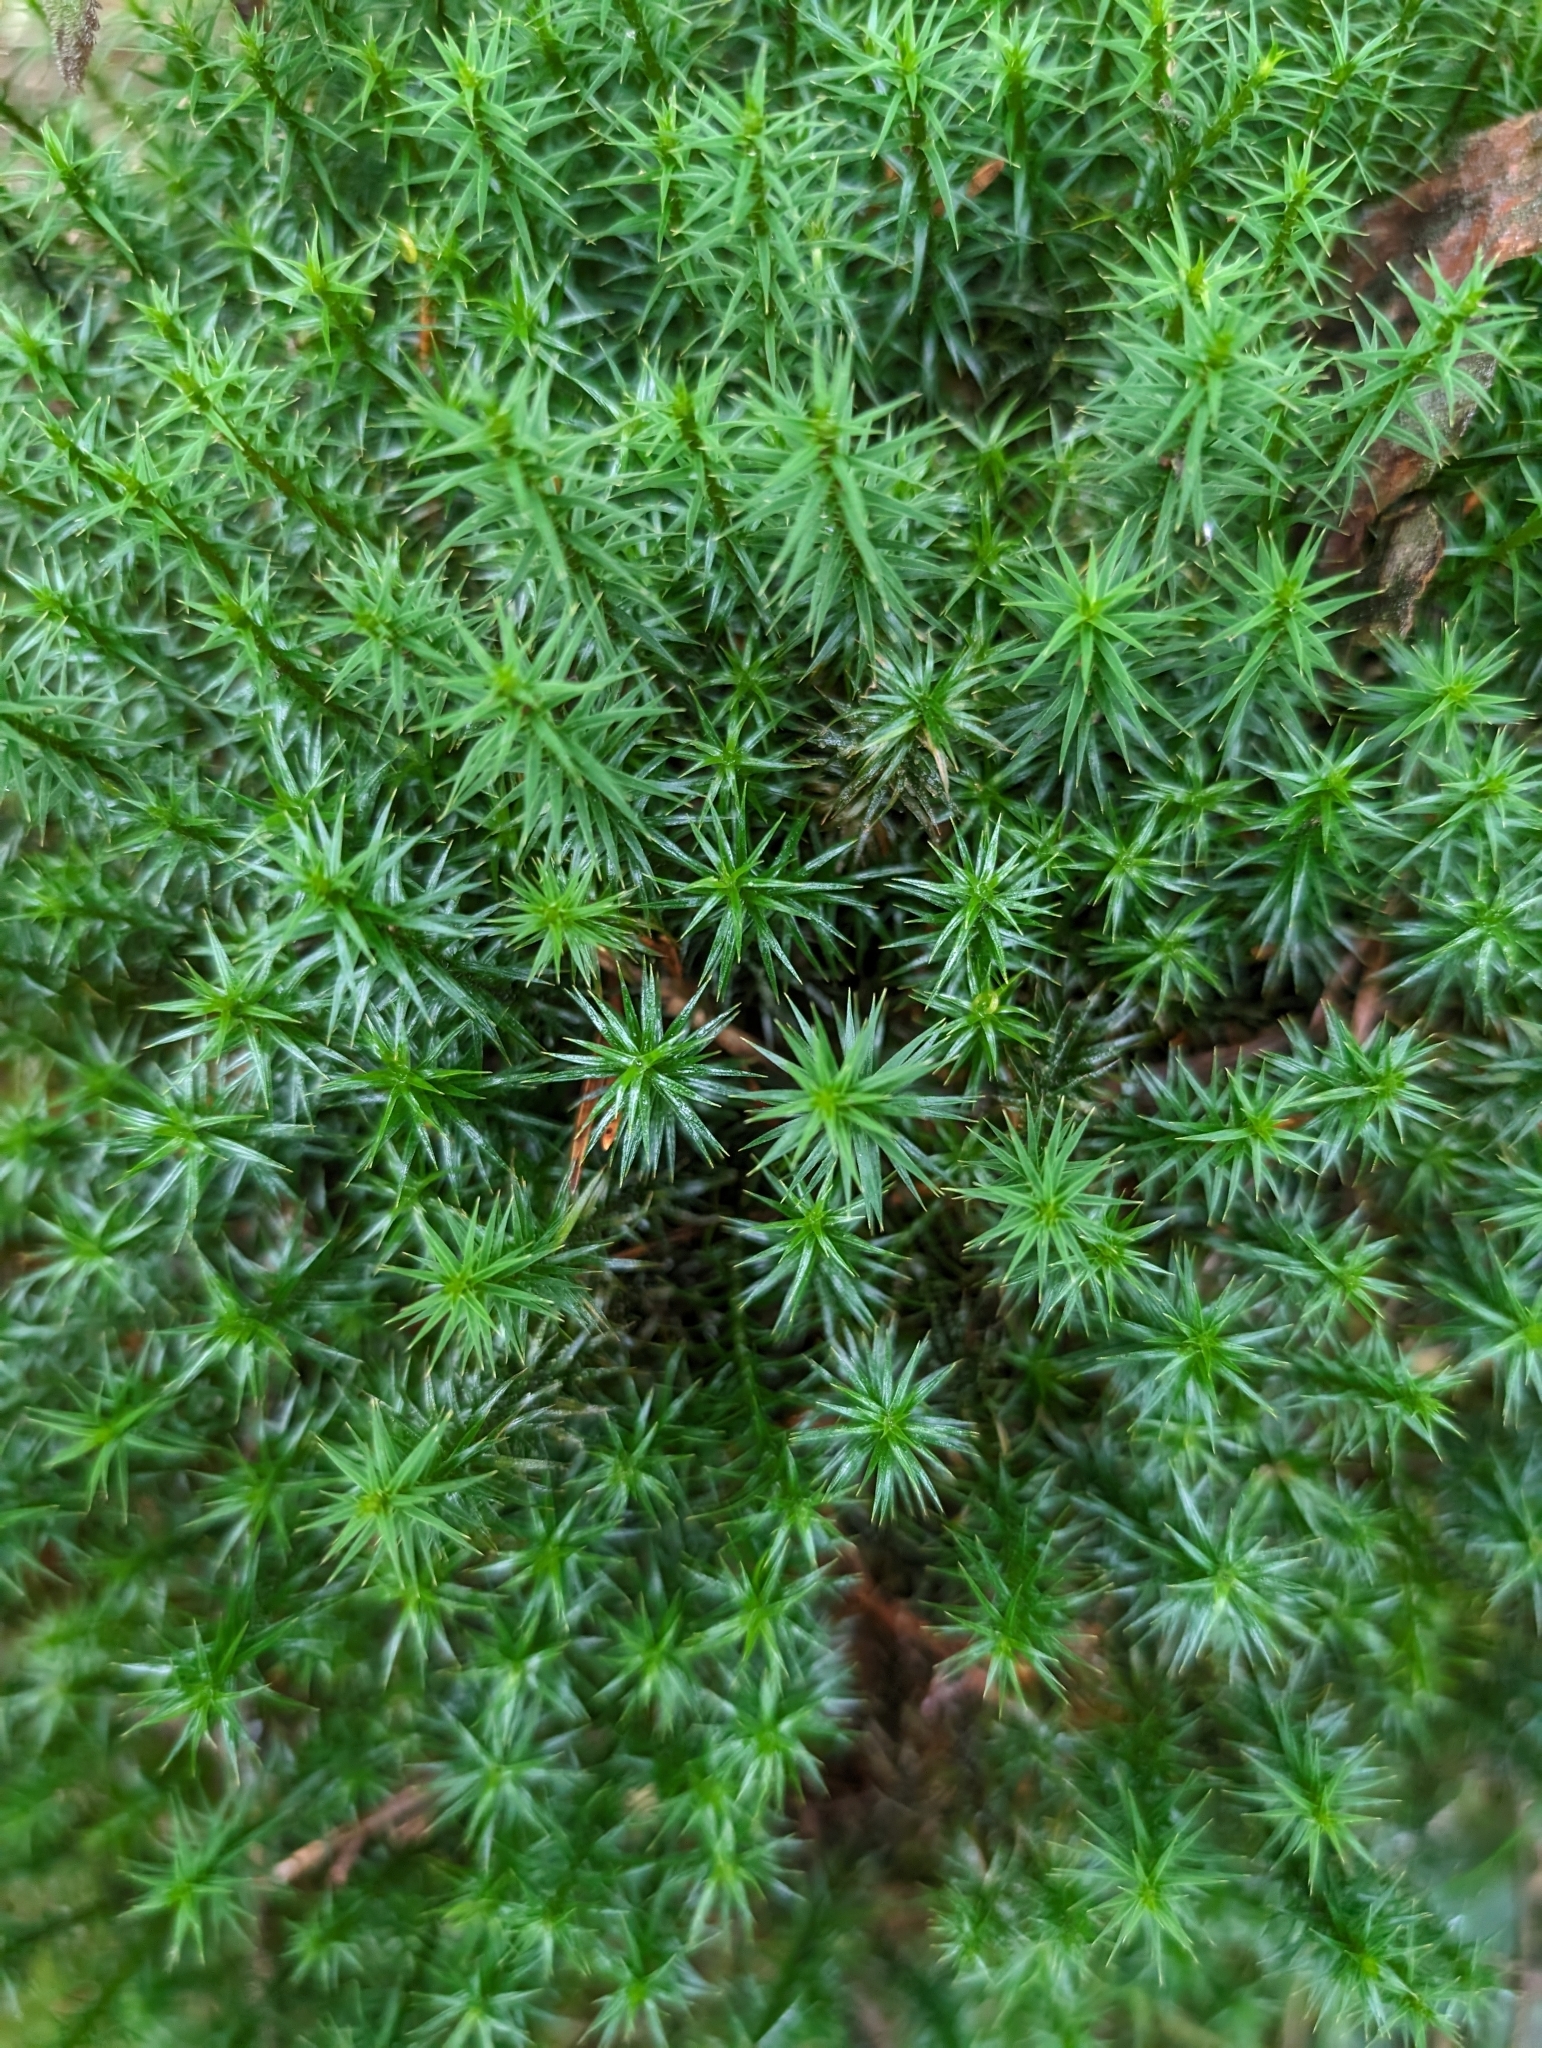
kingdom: Plantae
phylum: Bryophyta
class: Polytrichopsida
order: Polytrichales
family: Polytrichaceae
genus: Polytrichum
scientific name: Polytrichum formosum
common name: Bank haircap moss
